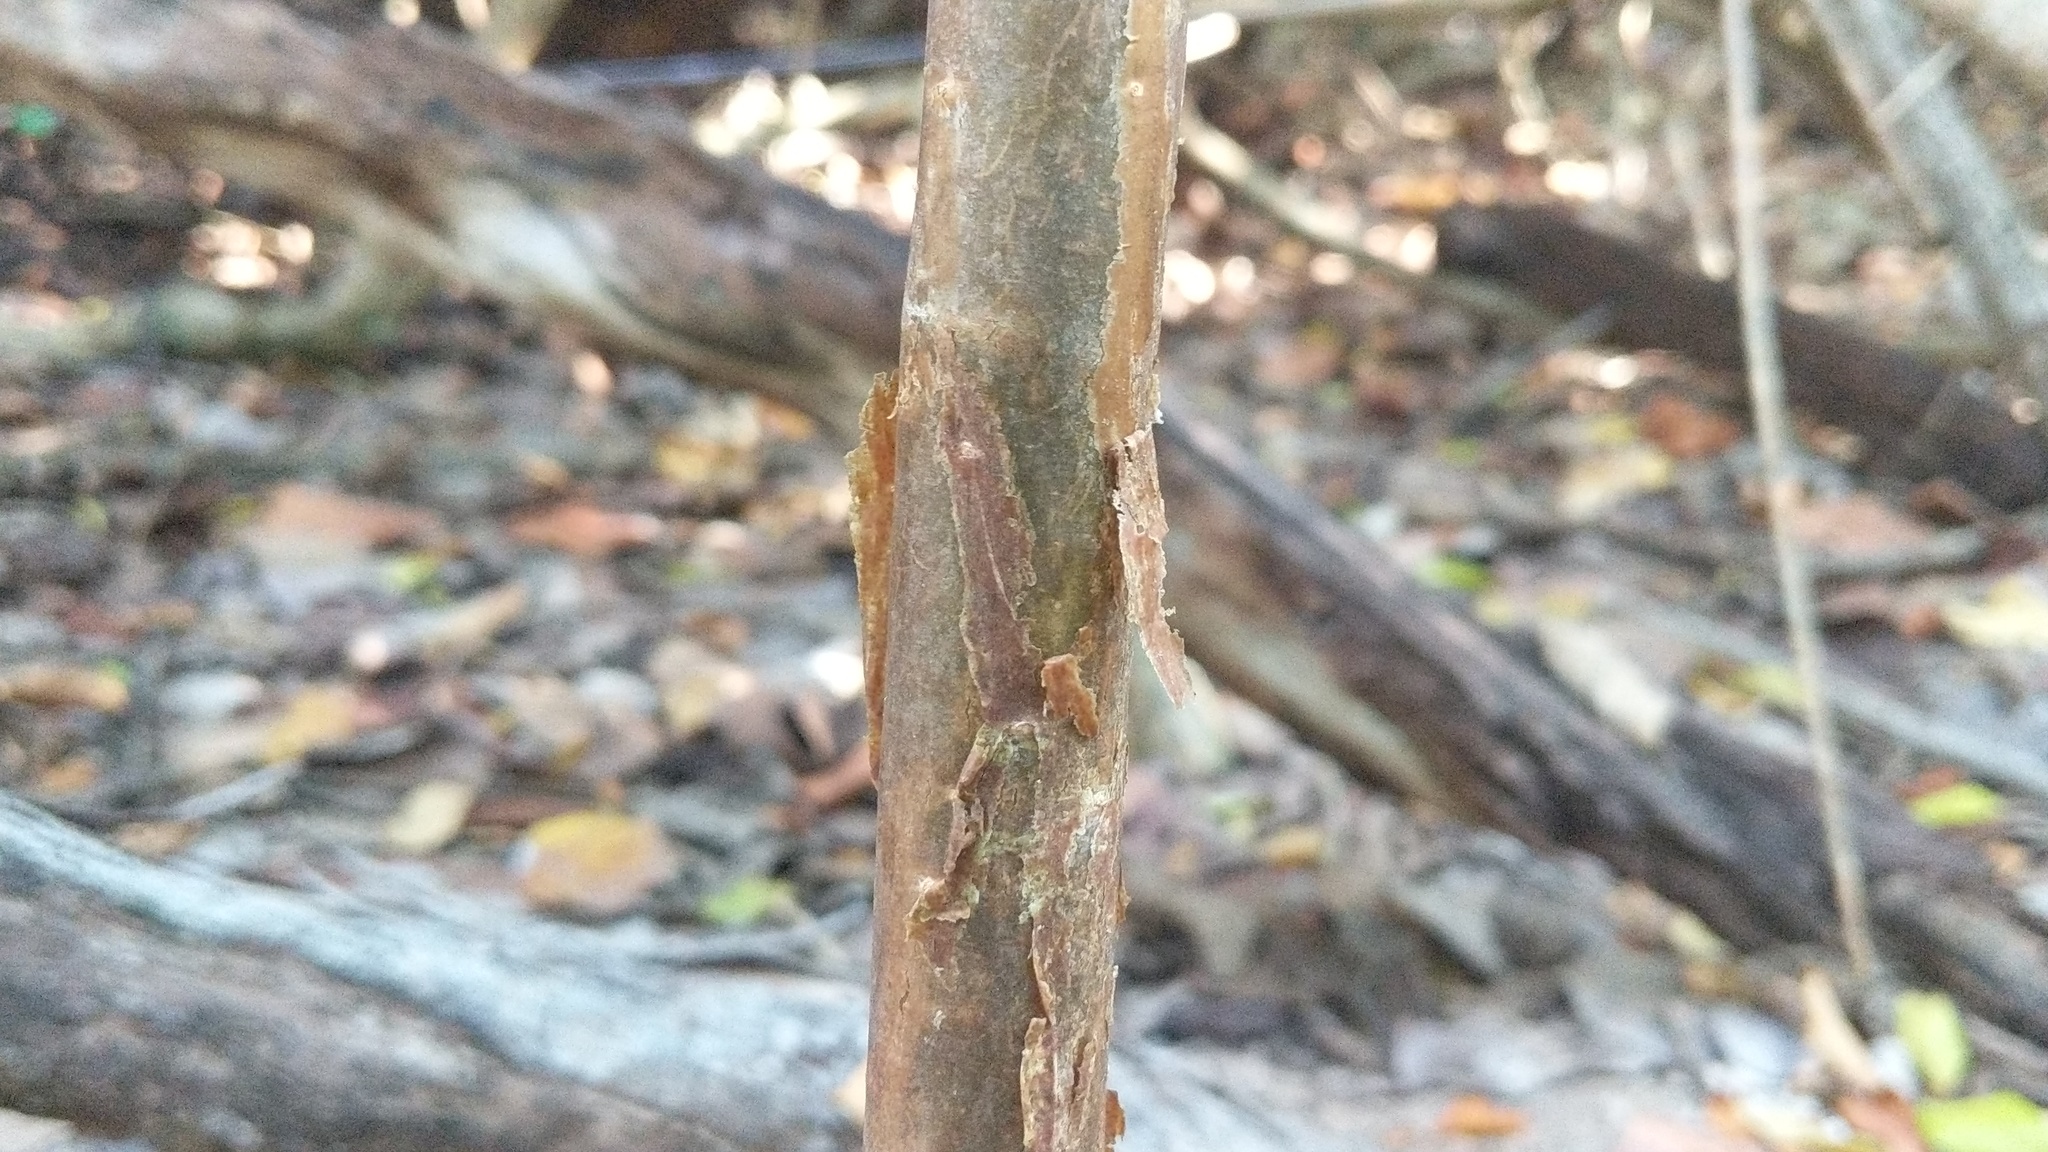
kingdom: Plantae
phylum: Tracheophyta
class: Magnoliopsida
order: Sapindales
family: Burseraceae
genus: Bursera
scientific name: Bursera simaruba
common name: Turpentine tree
